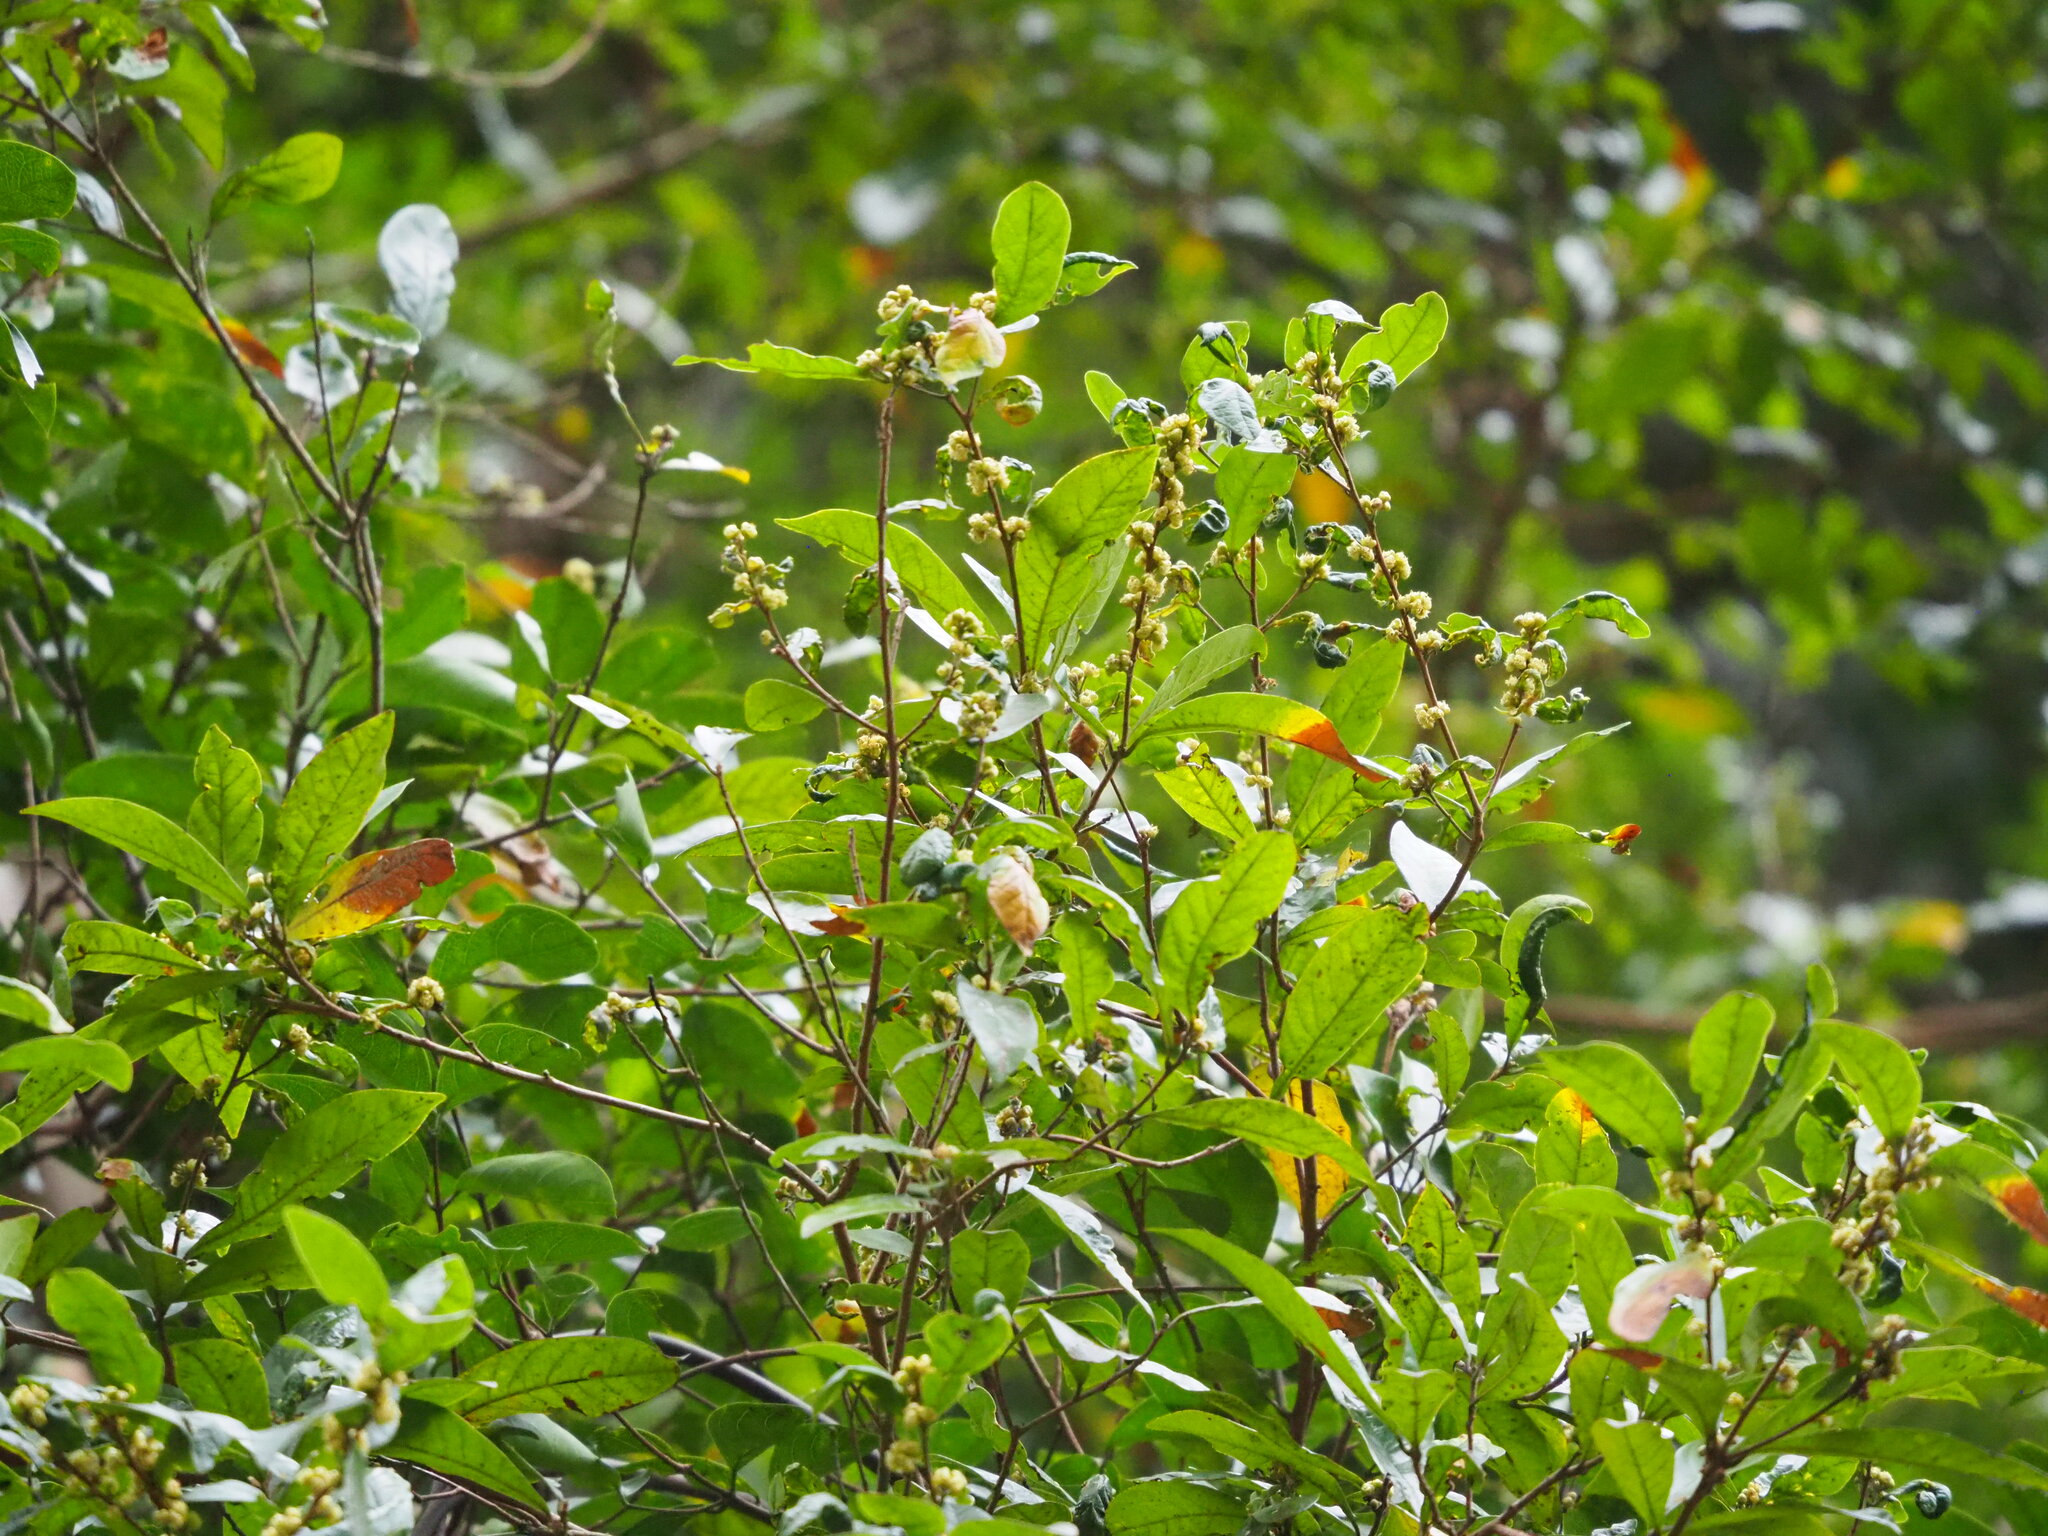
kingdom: Plantae
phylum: Tracheophyta
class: Magnoliopsida
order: Laurales
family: Lauraceae
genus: Litsea
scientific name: Litsea hypophaea
